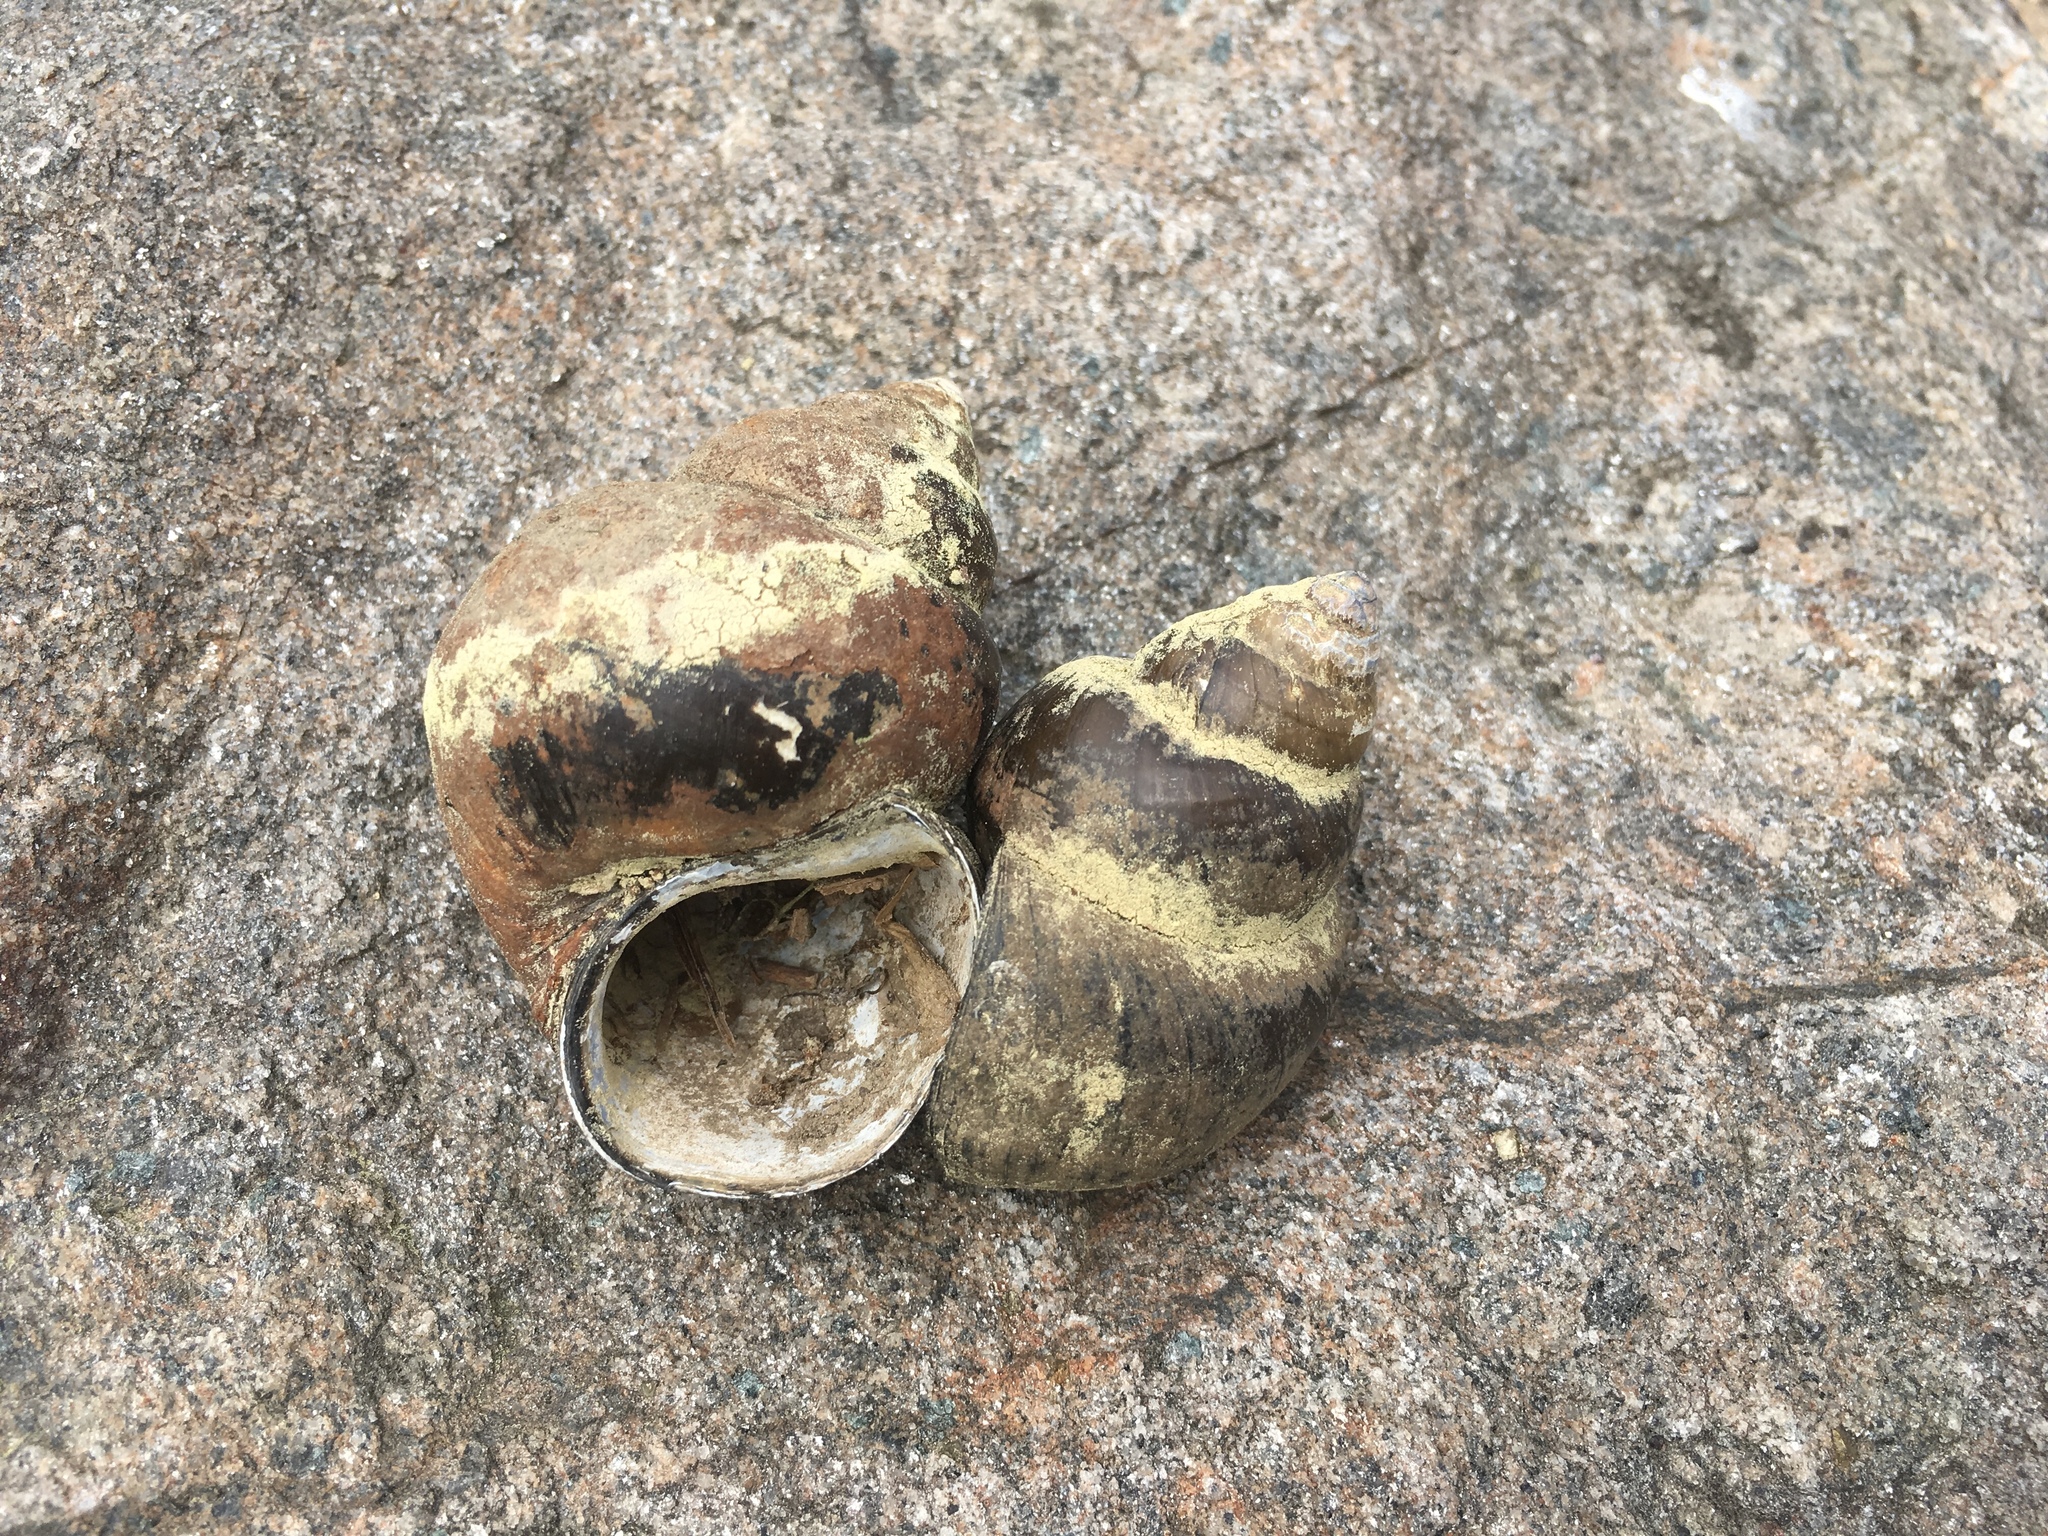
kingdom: Animalia
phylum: Mollusca
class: Gastropoda
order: Architaenioglossa
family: Viviparidae
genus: Cipangopaludina
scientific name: Cipangopaludina chinensis
